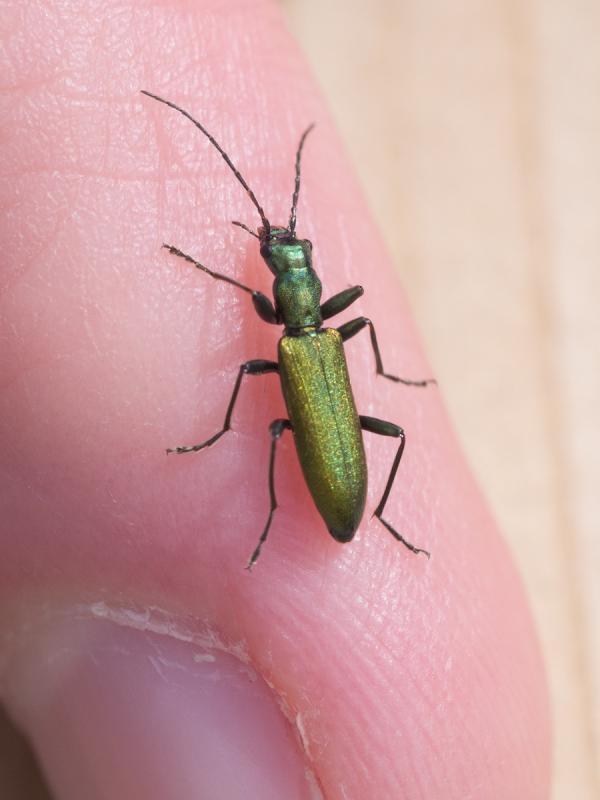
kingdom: Animalia
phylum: Arthropoda
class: Insecta
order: Coleoptera
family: Oedemeridae
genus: Chrysanthia
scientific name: Chrysanthia viridissima
